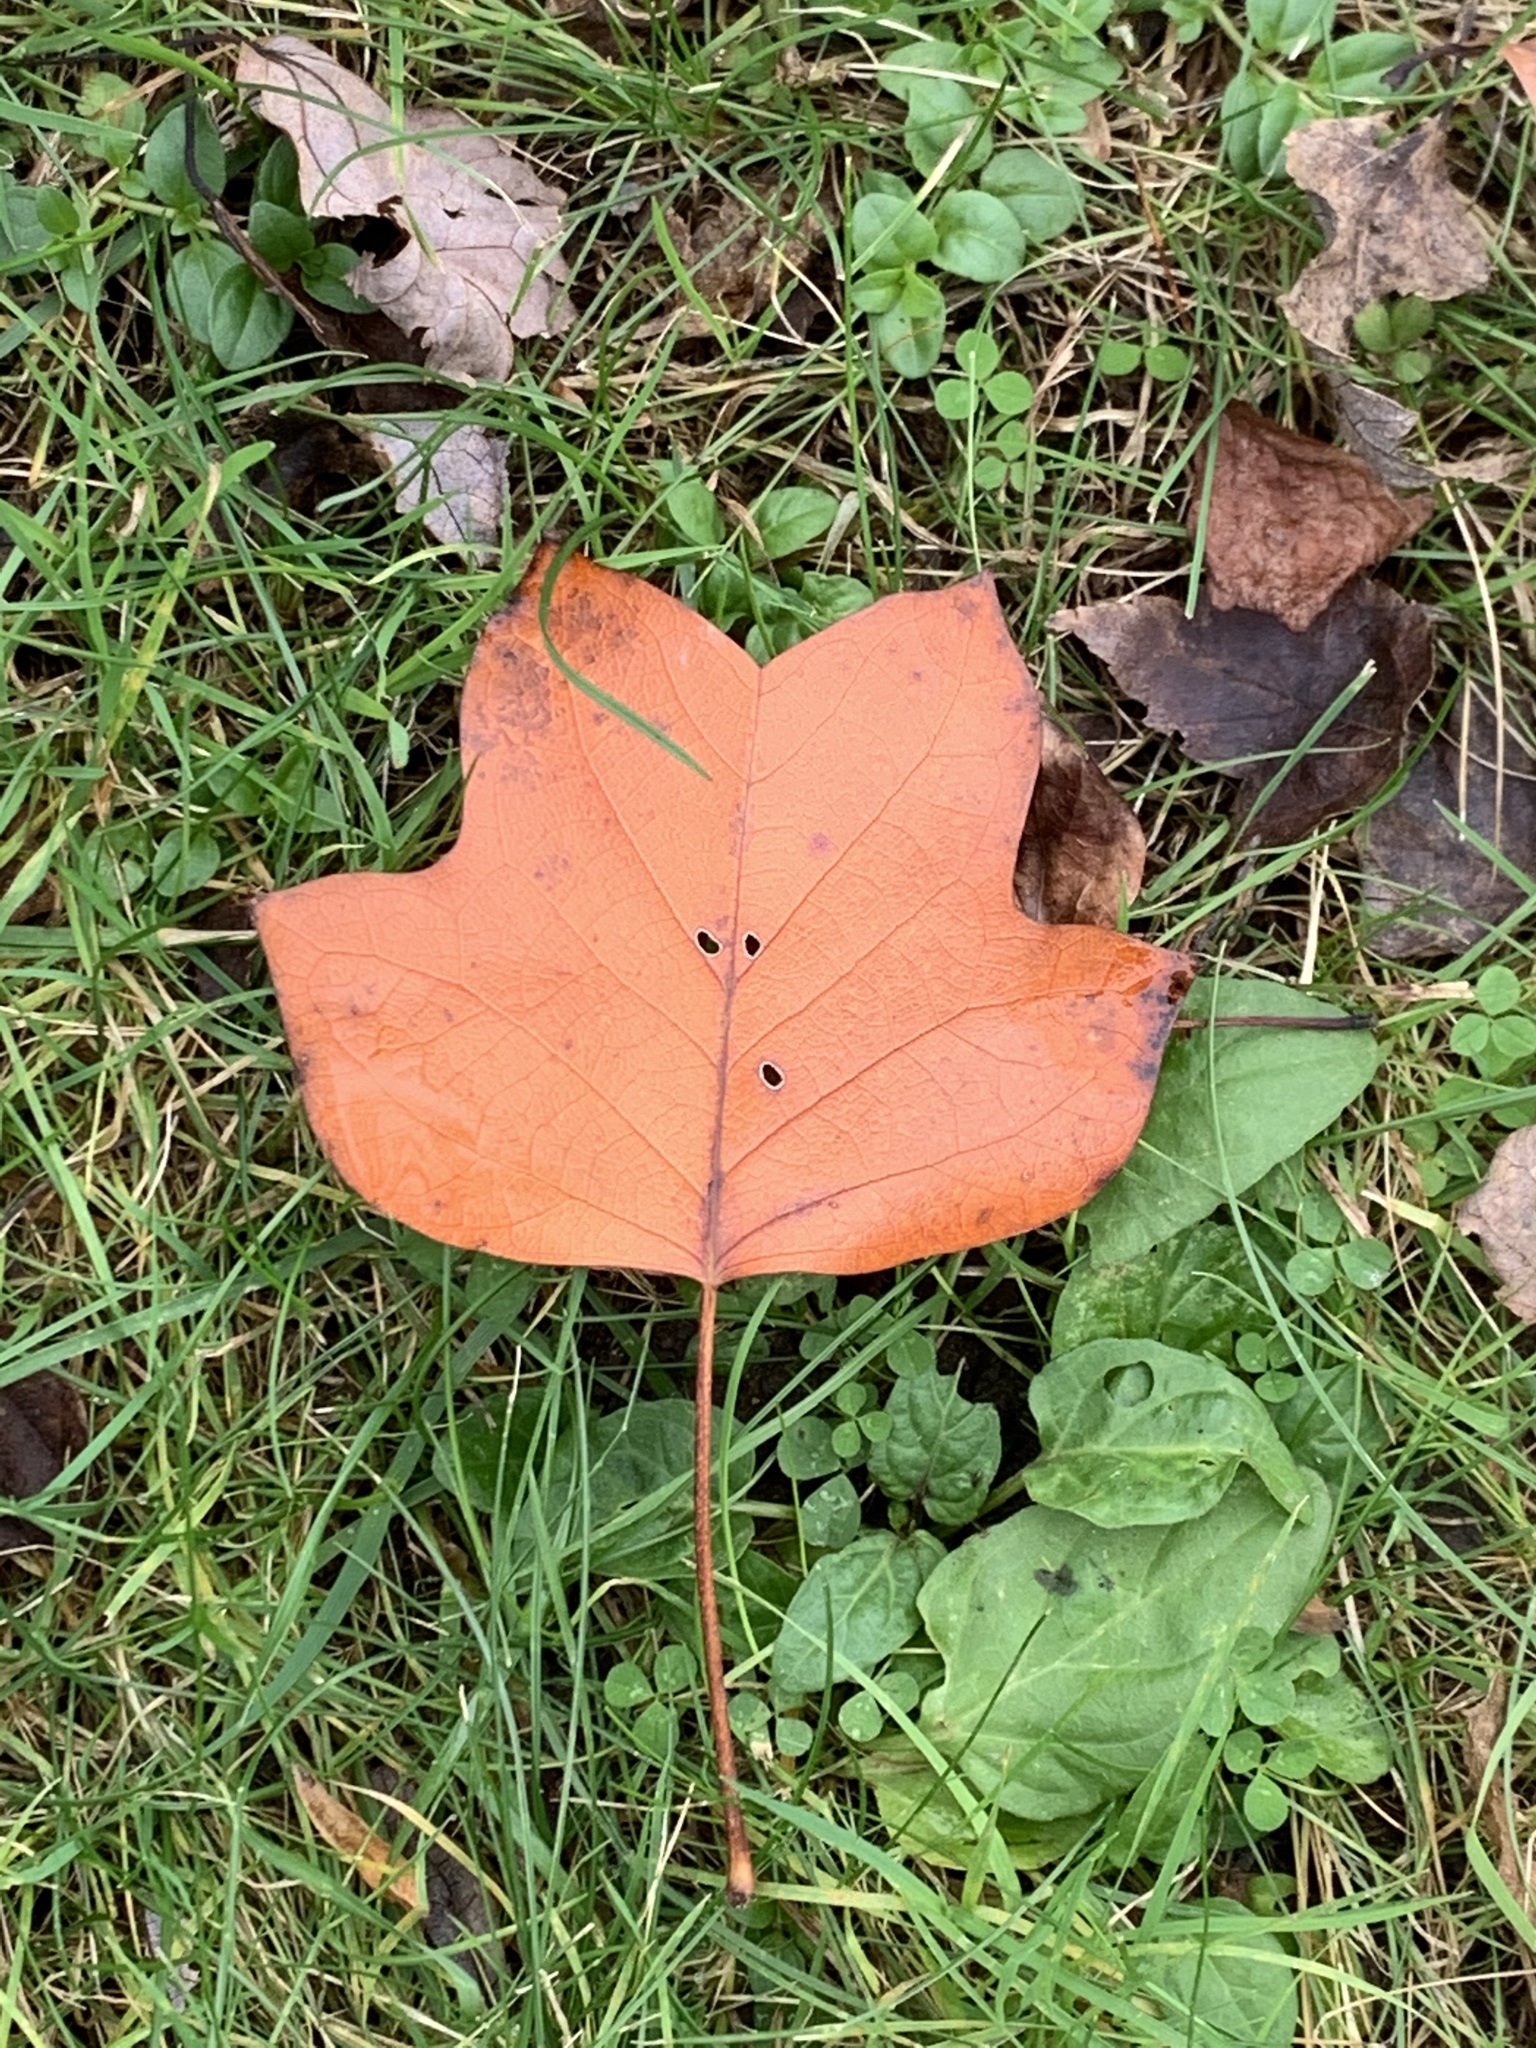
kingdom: Plantae
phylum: Tracheophyta
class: Magnoliopsida
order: Magnoliales
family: Magnoliaceae
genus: Liriodendron
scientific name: Liriodendron tulipifera
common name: Tulip tree
